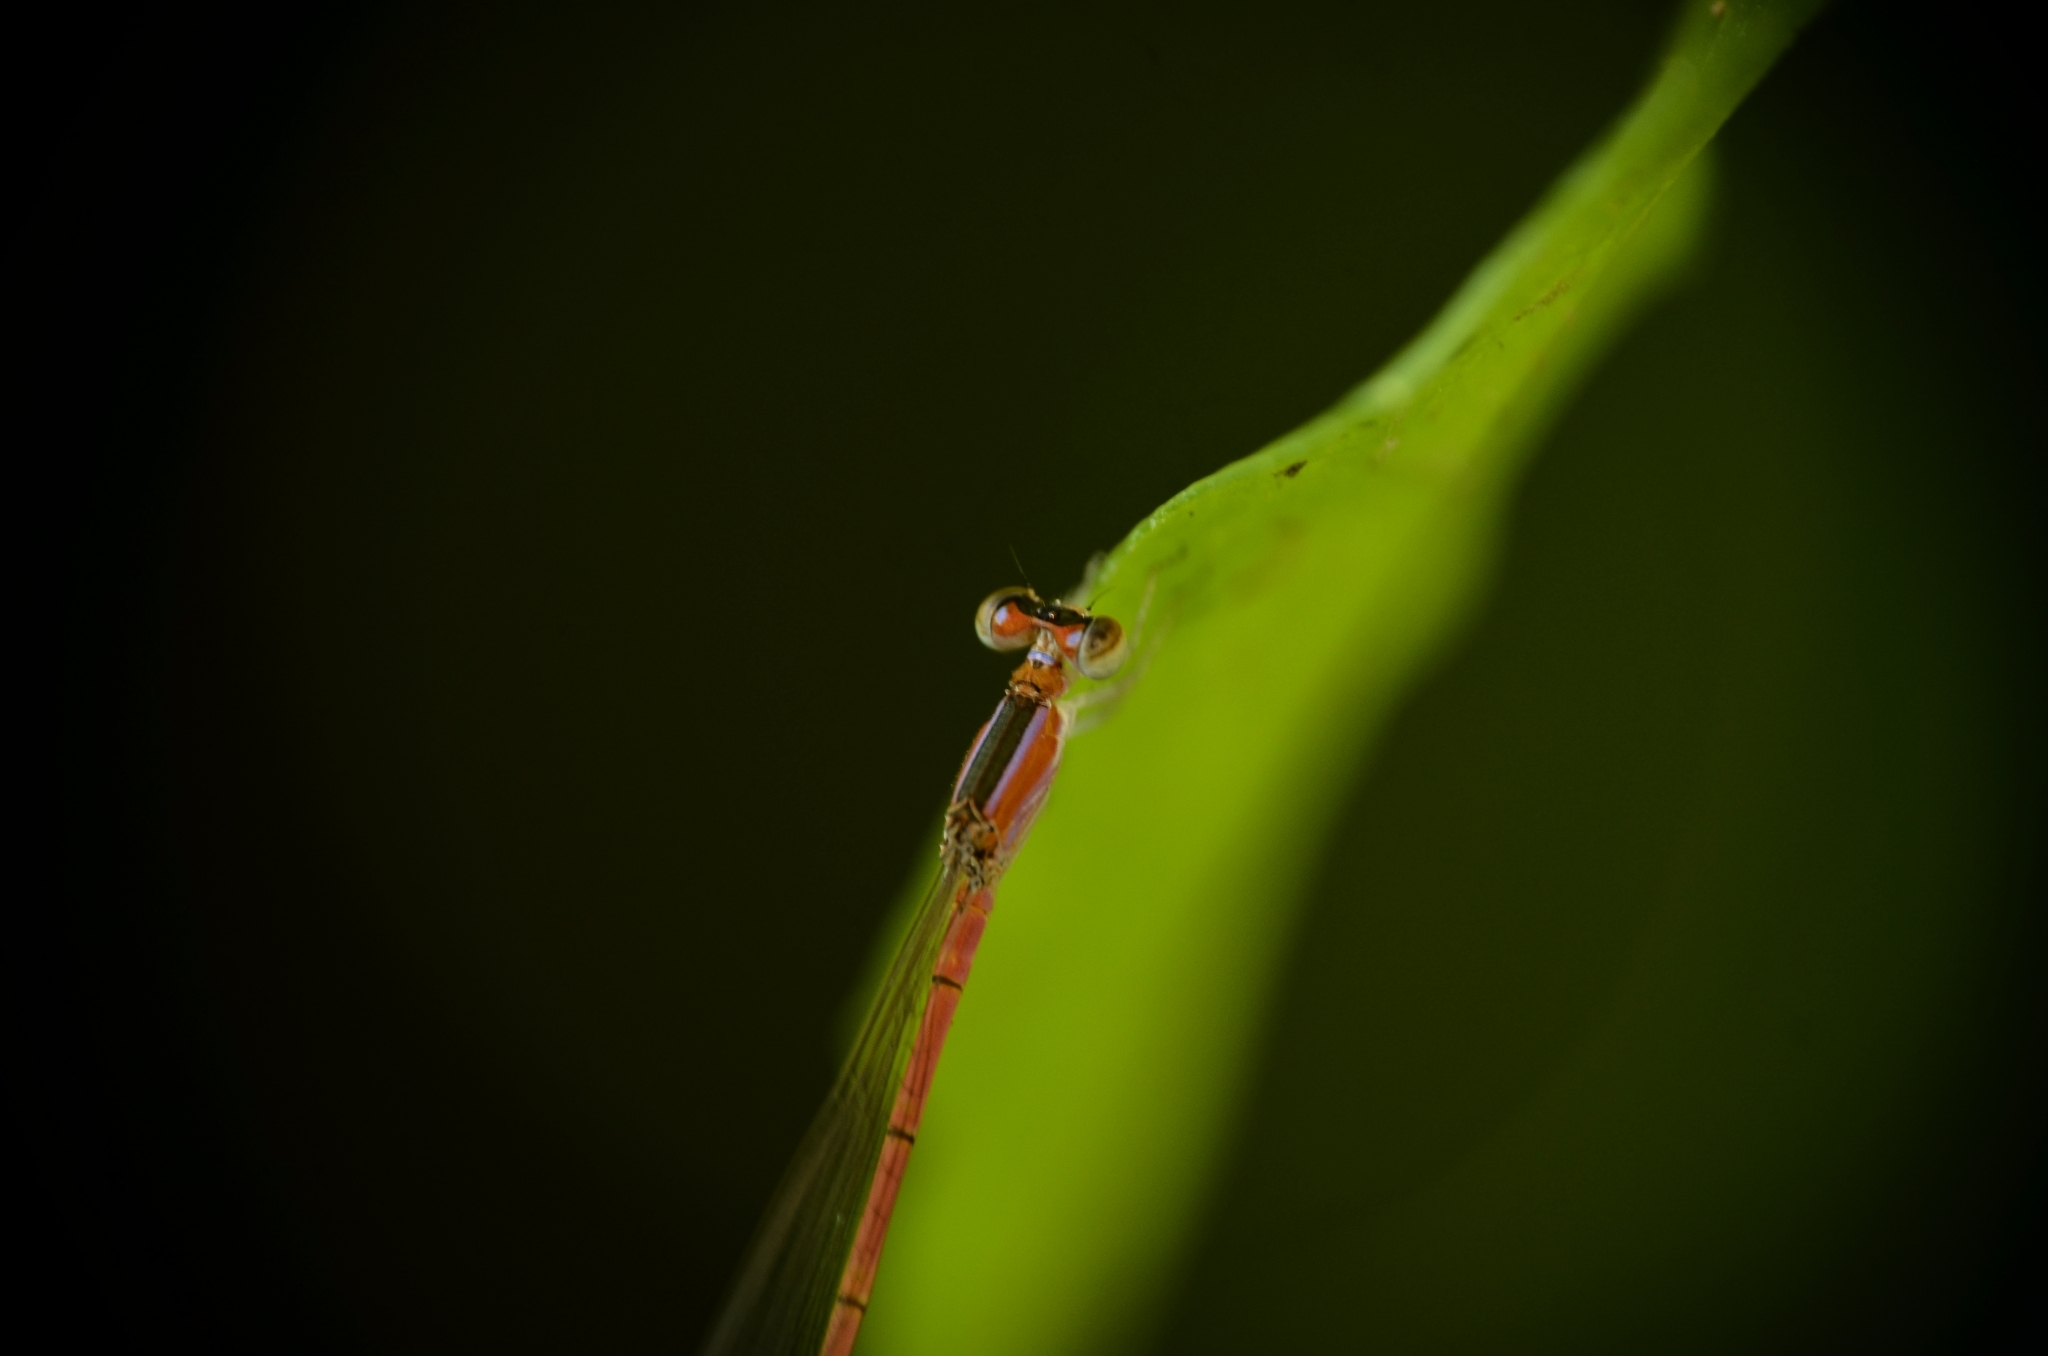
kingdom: Animalia
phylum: Arthropoda
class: Insecta
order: Odonata
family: Coenagrionidae
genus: Agriocnemis
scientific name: Agriocnemis pygmaea
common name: Pygmy wisp
